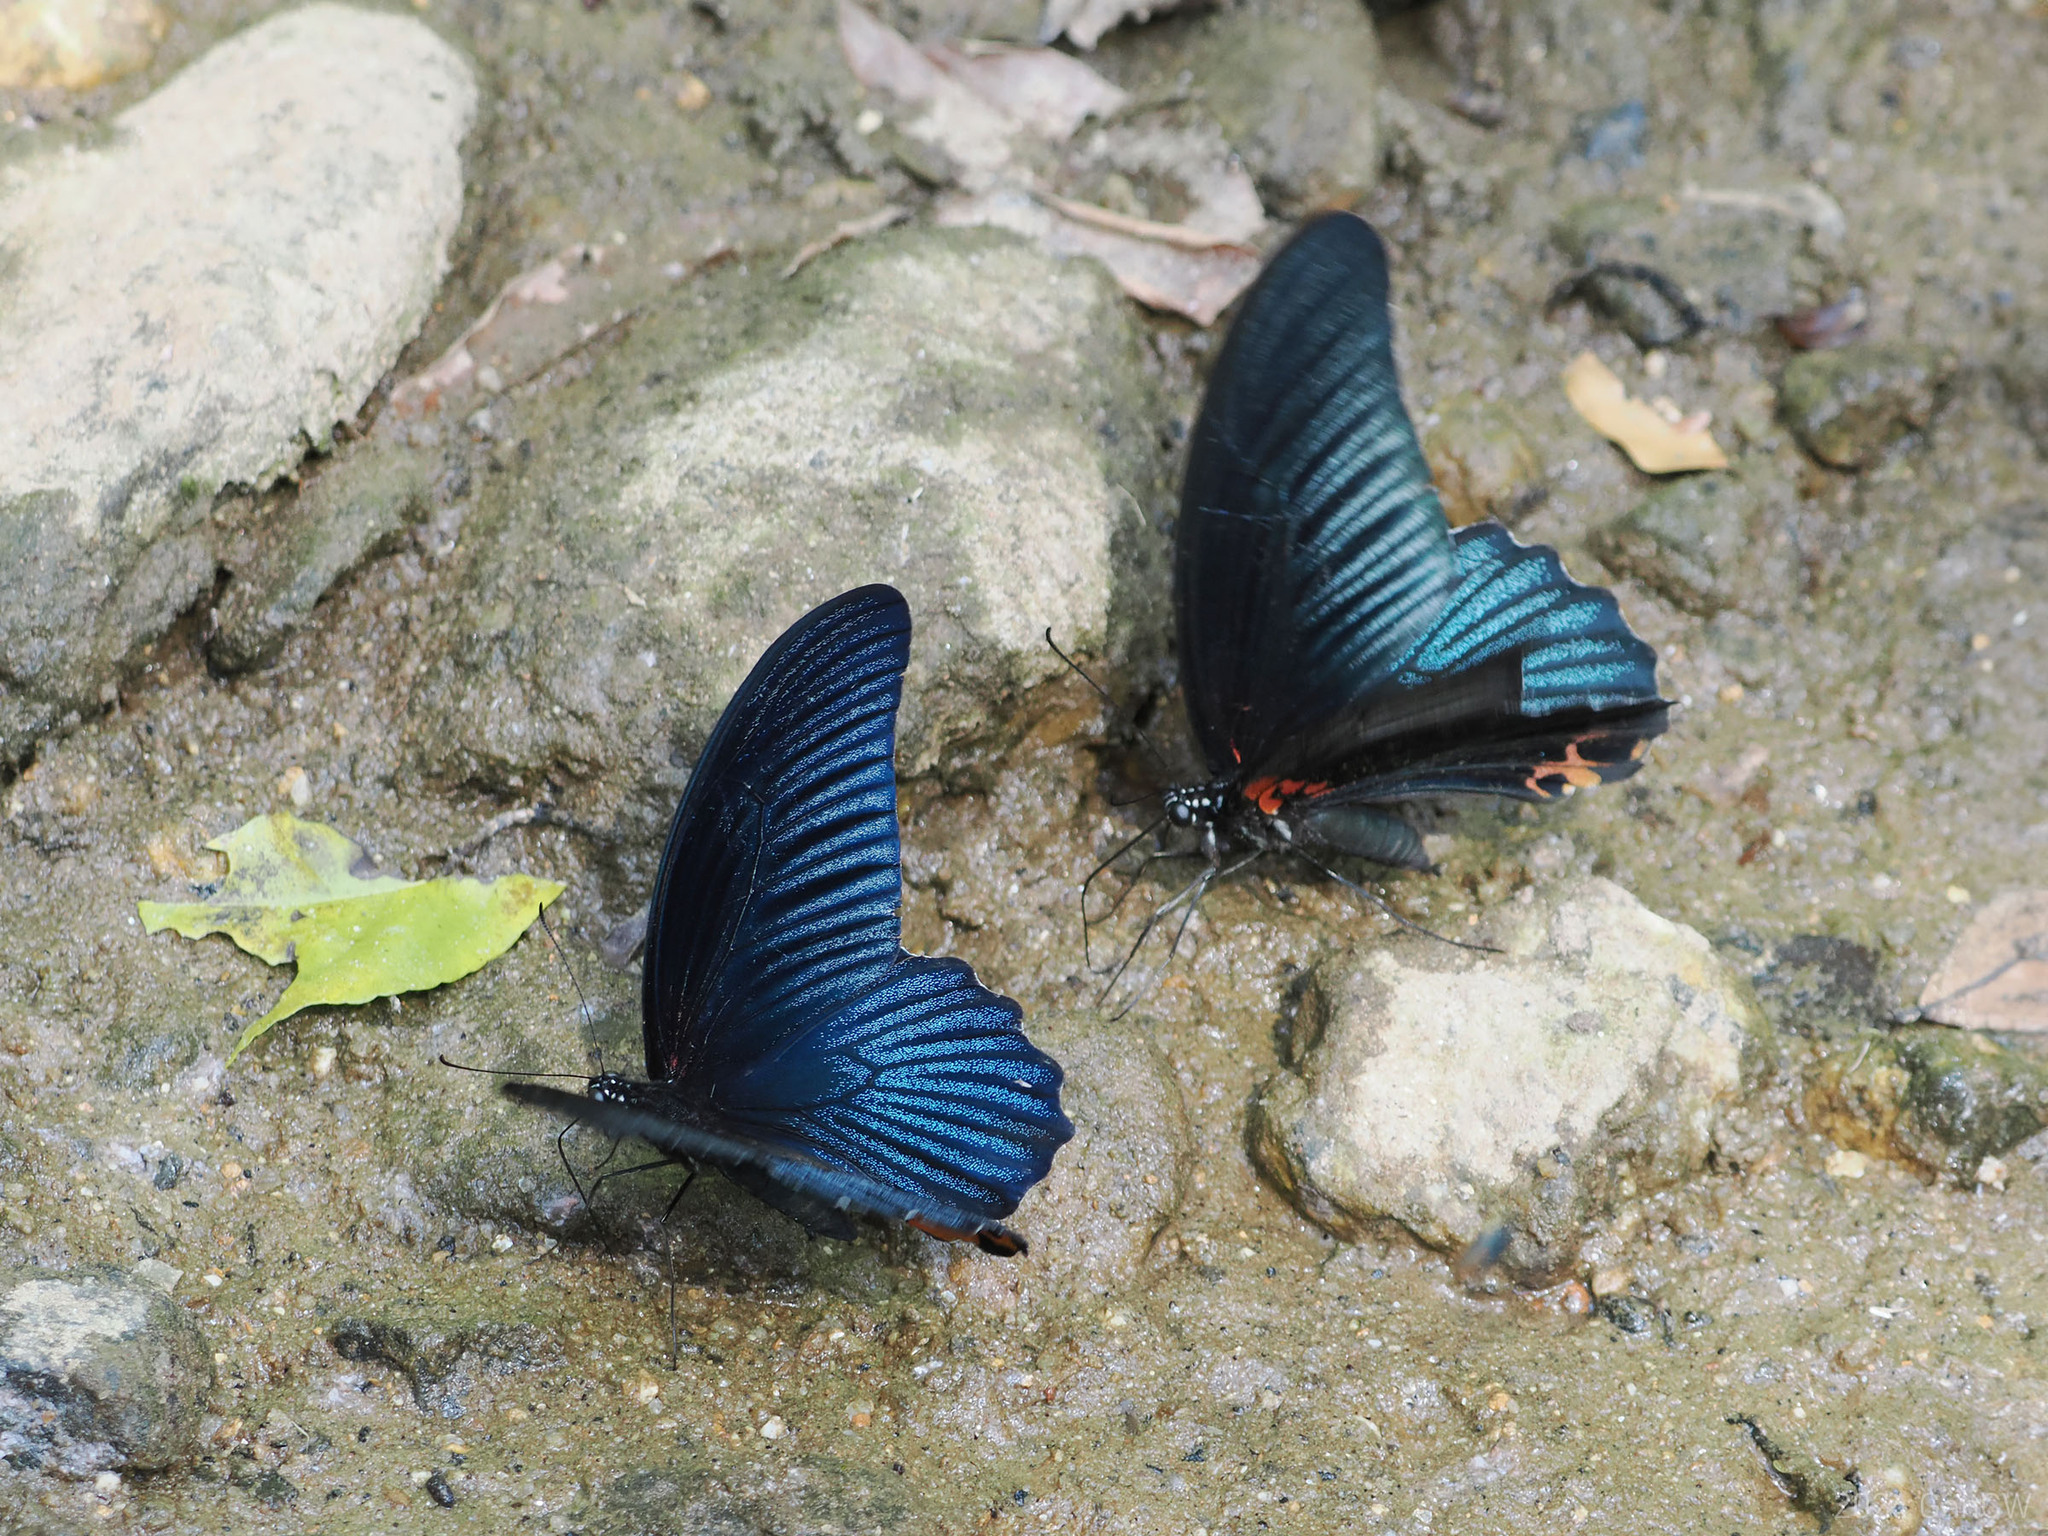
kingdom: Animalia
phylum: Arthropoda
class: Insecta
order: Lepidoptera
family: Papilionidae
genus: Papilio
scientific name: Papilio memnon
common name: Great mormon
